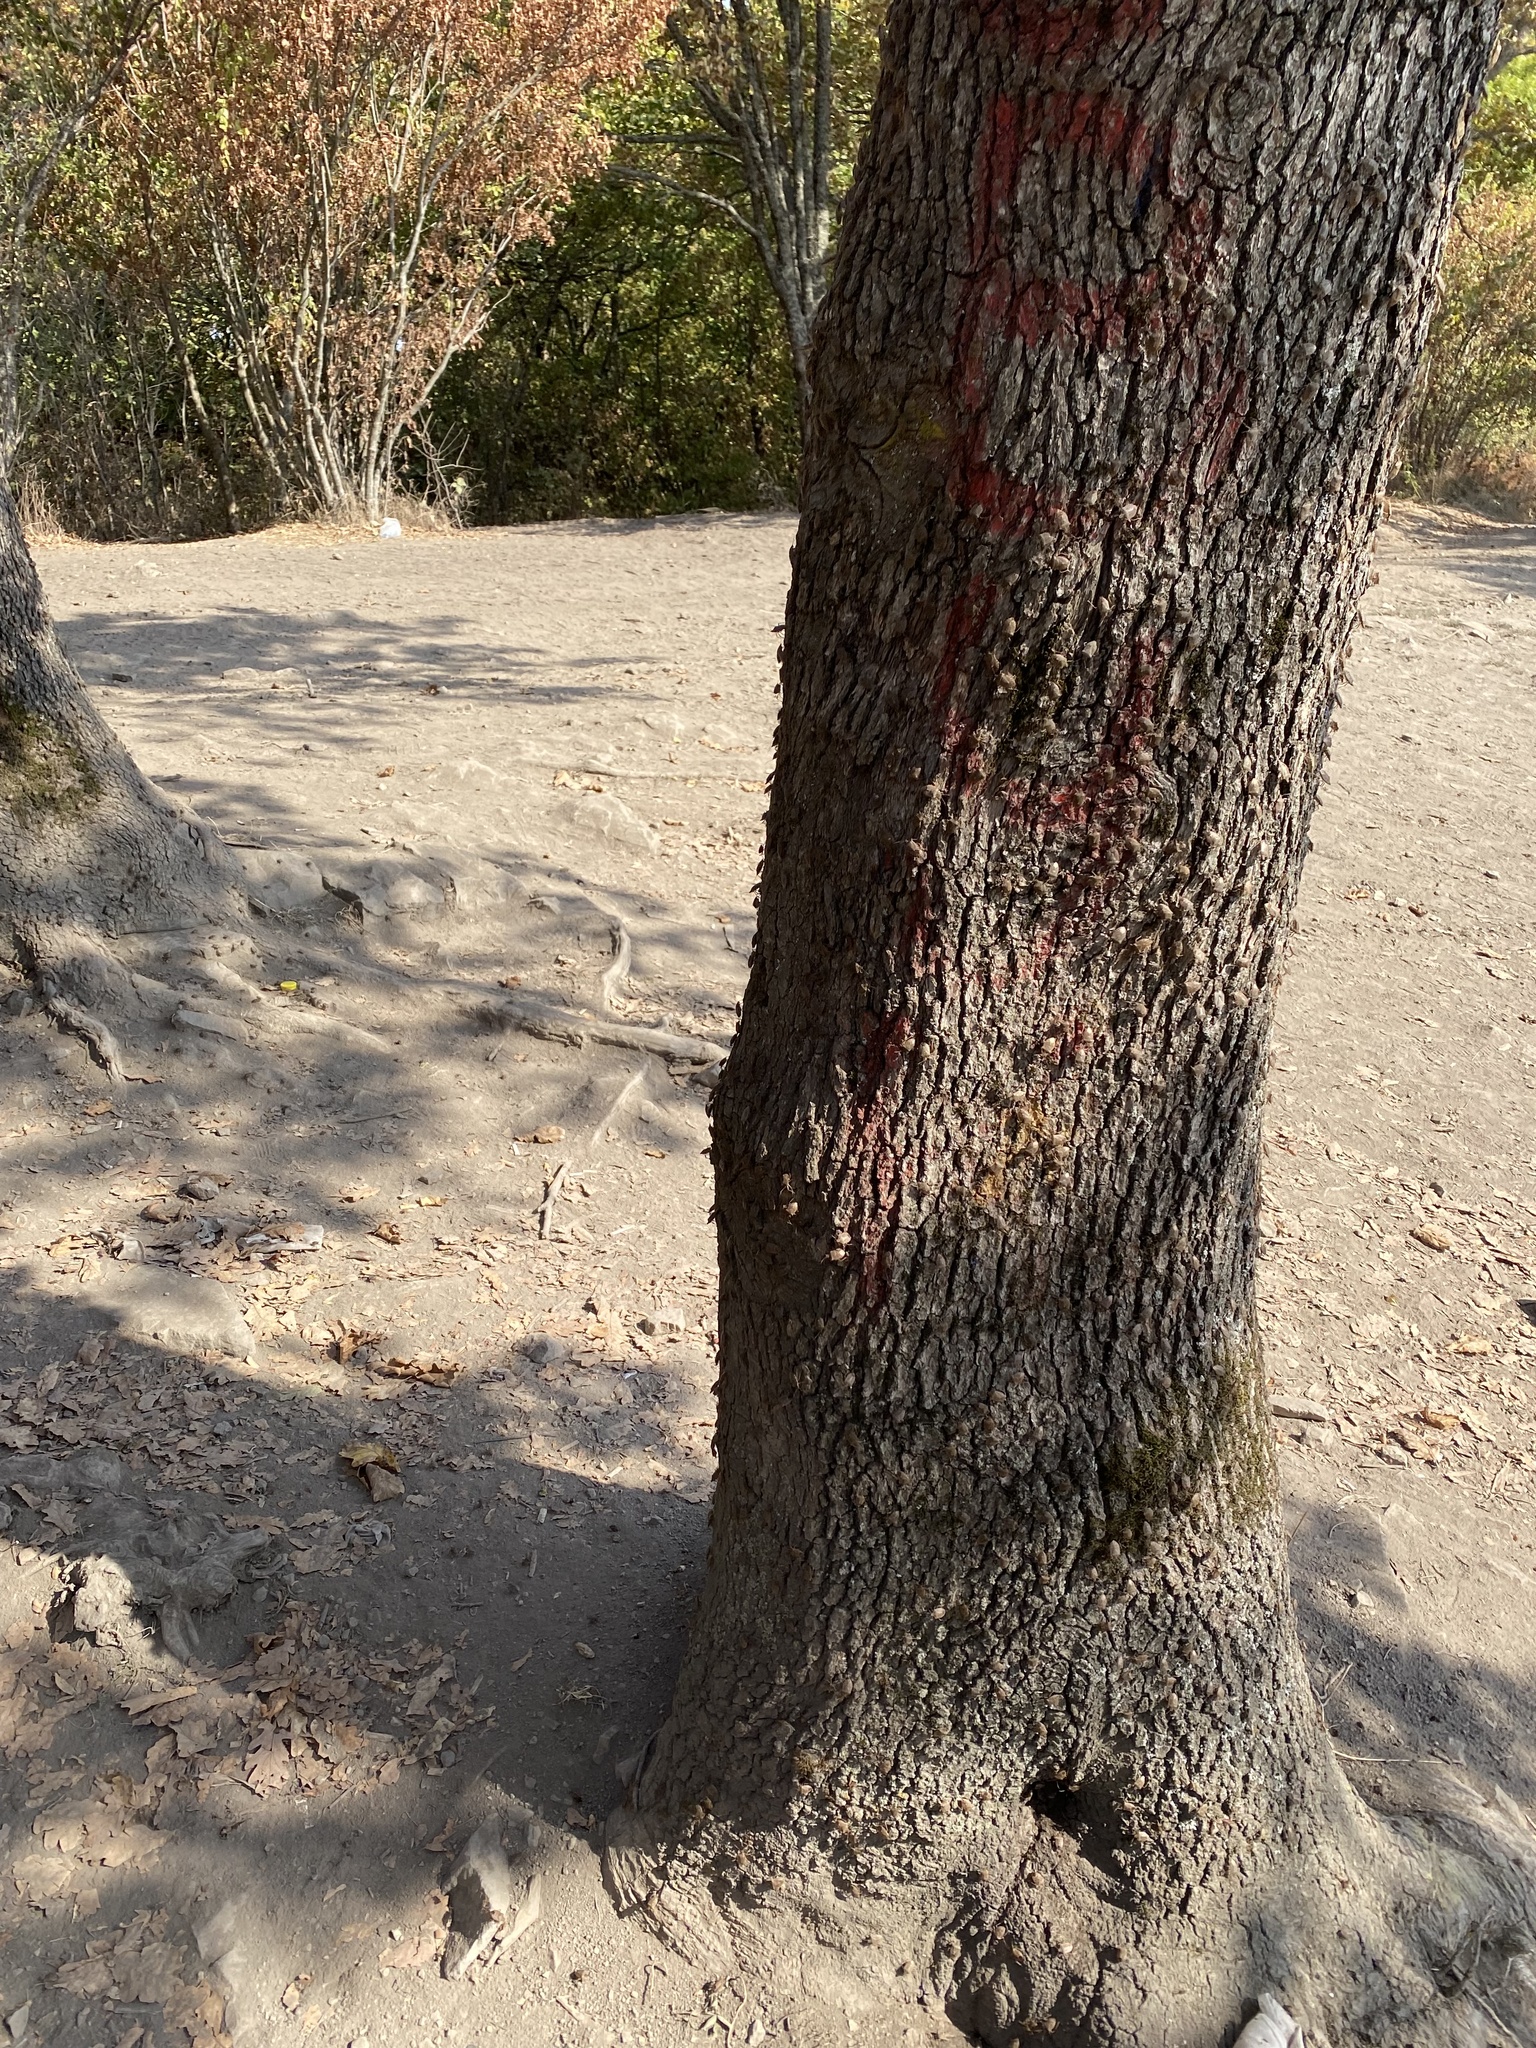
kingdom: Animalia
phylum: Arthropoda
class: Insecta
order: Hemiptera
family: Pentatomidae
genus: Halyomorpha
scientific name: Halyomorpha halys
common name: Brown marmorated stink bug
